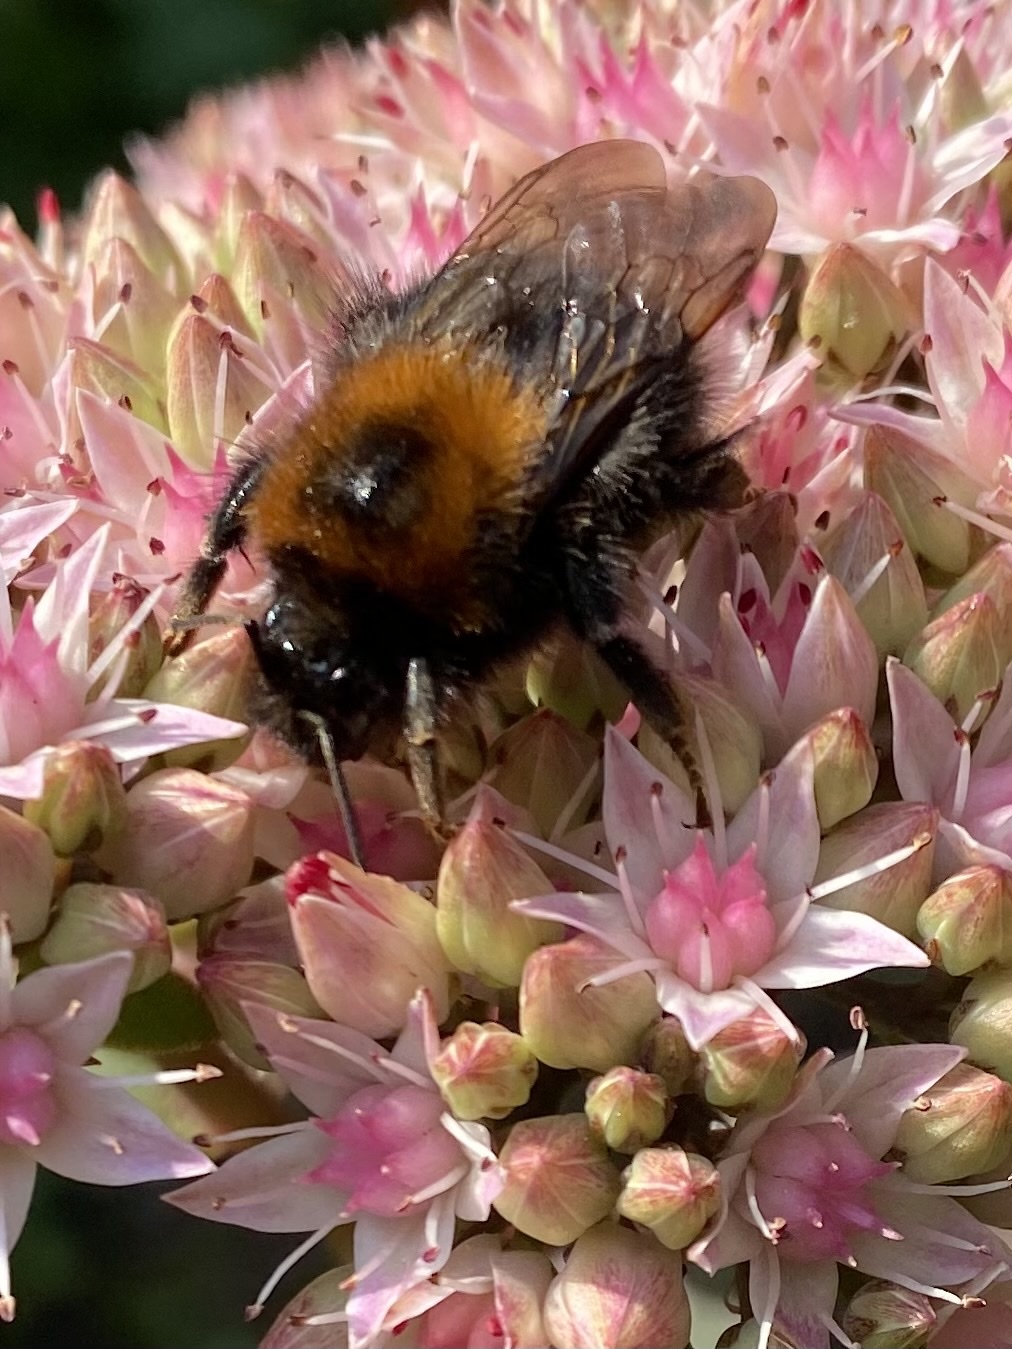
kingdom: Animalia
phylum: Arthropoda
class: Insecta
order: Hymenoptera
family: Apidae
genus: Bombus
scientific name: Bombus hypnorum
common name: New garden bumblebee
